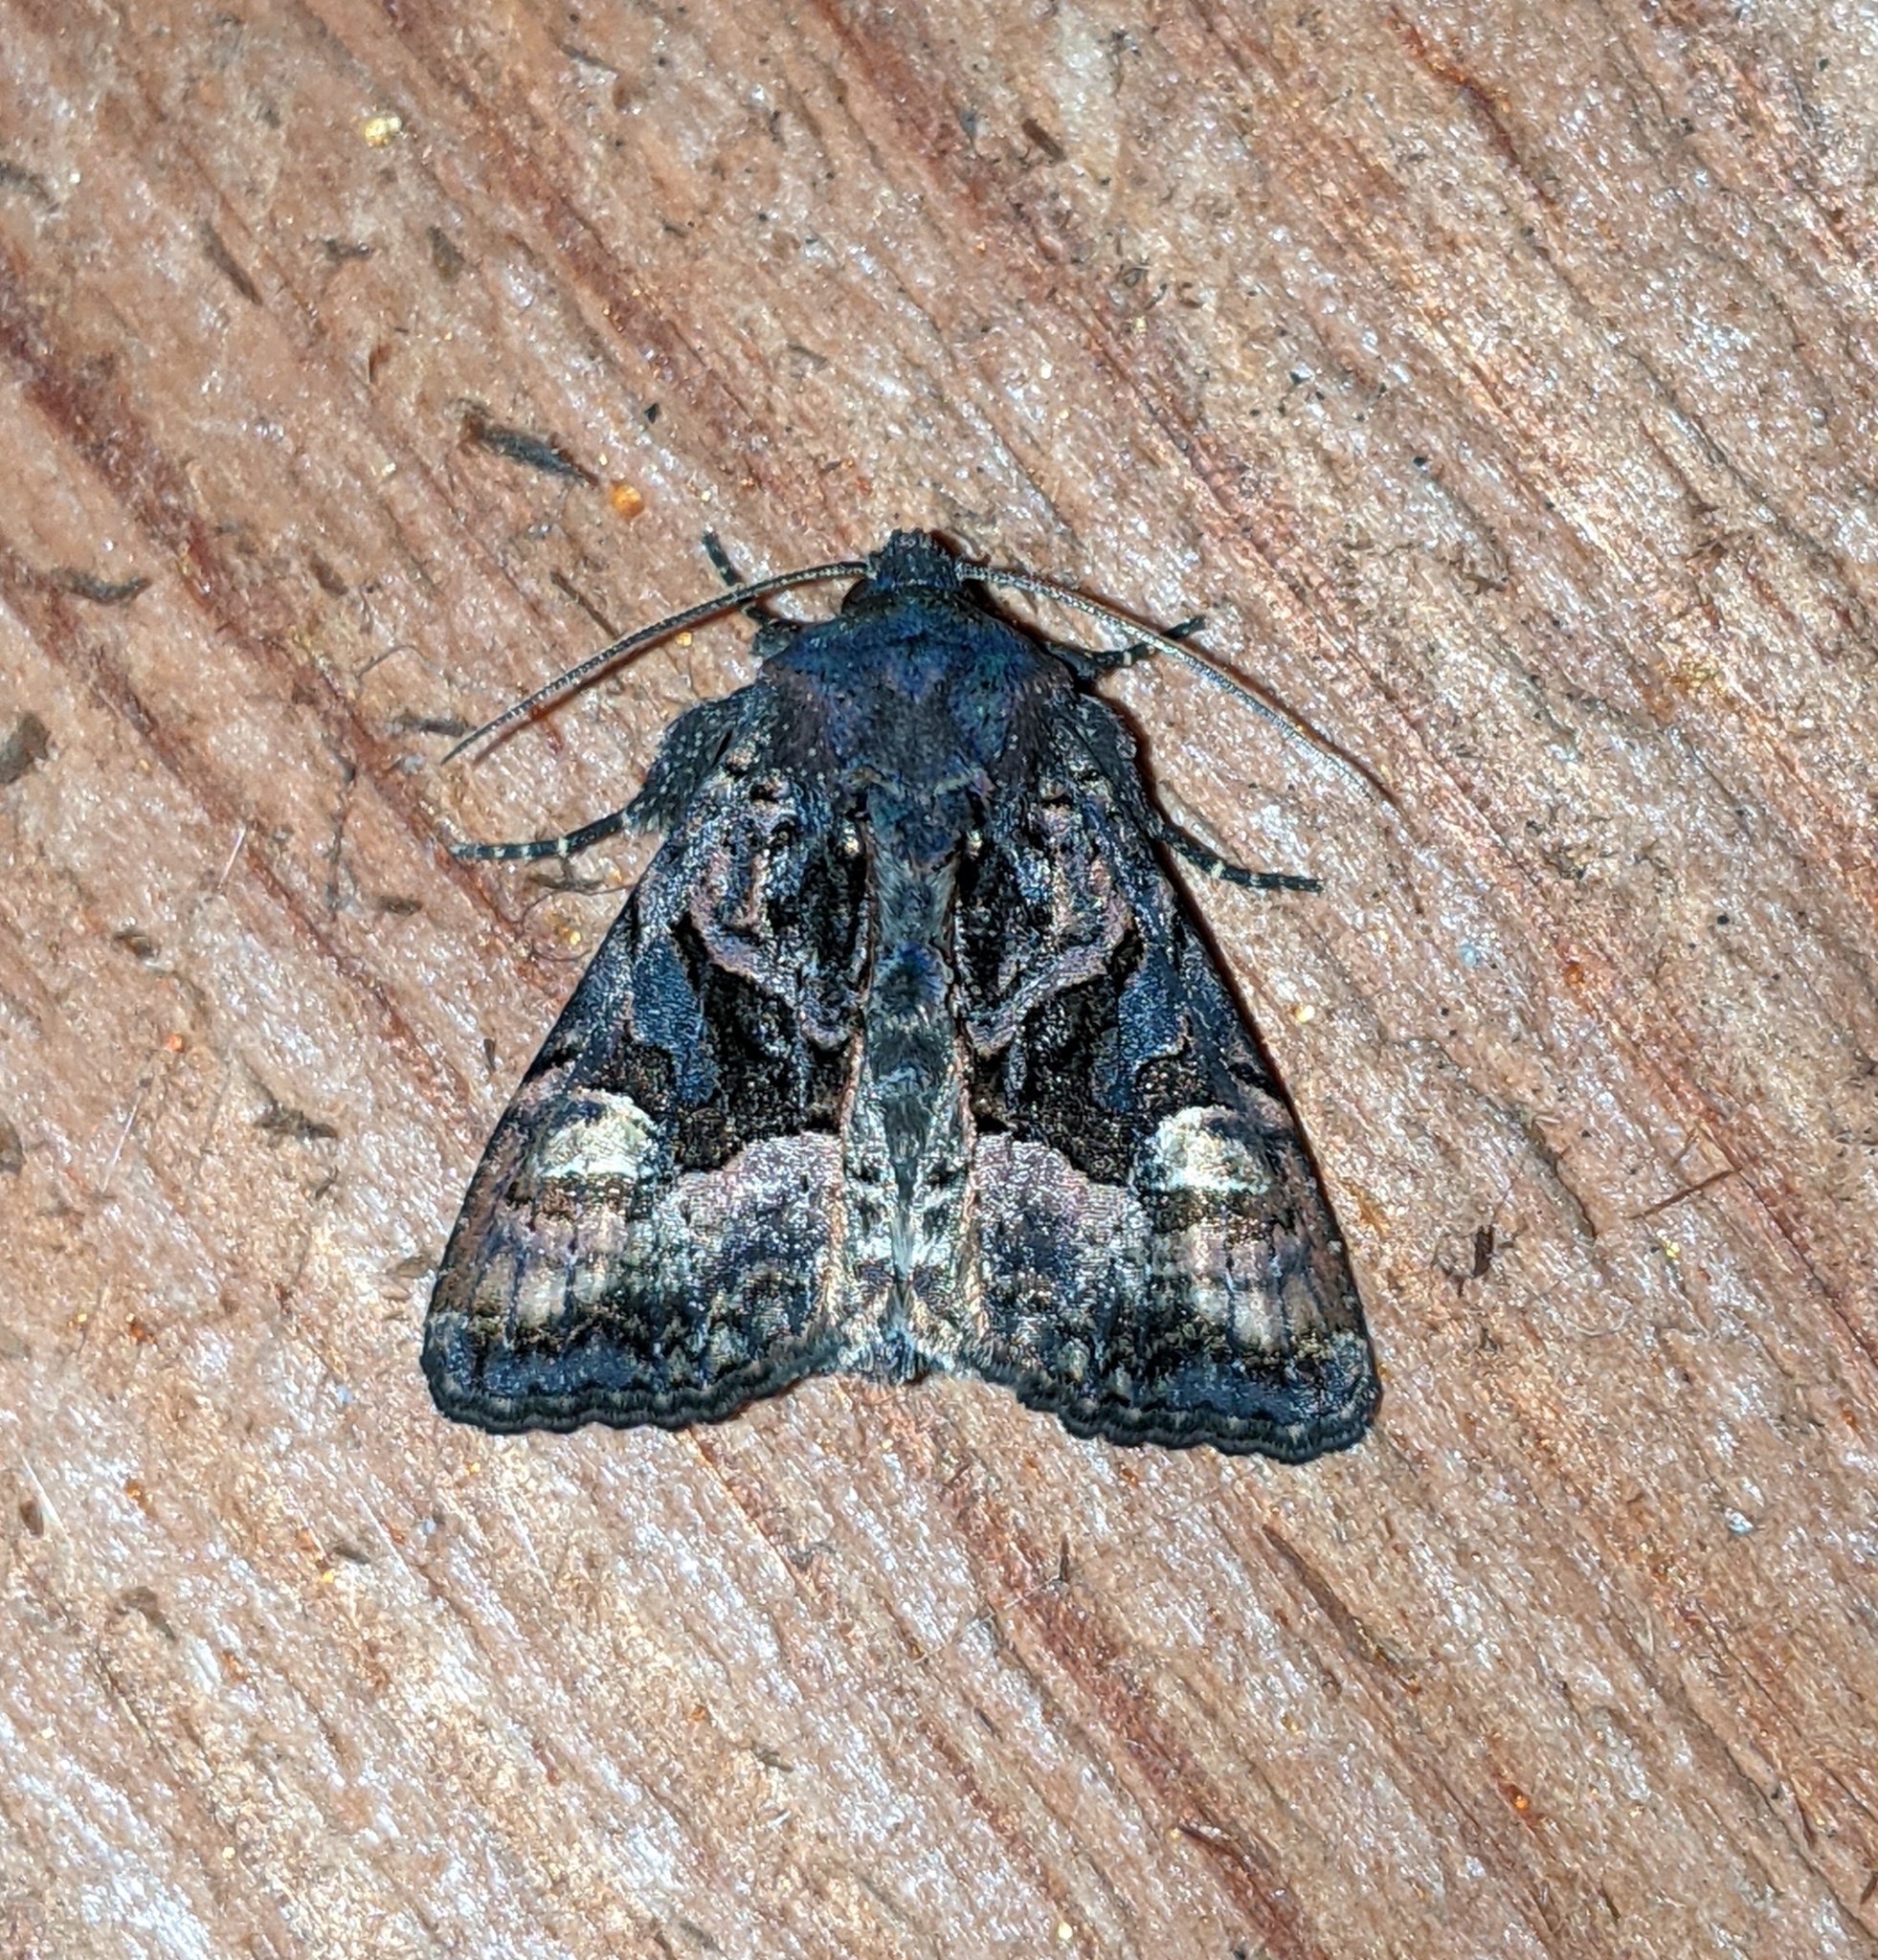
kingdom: Animalia
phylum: Arthropoda
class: Insecta
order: Lepidoptera
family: Noctuidae
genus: Euplexia
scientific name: Euplexia benesimilis
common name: American angle shades
